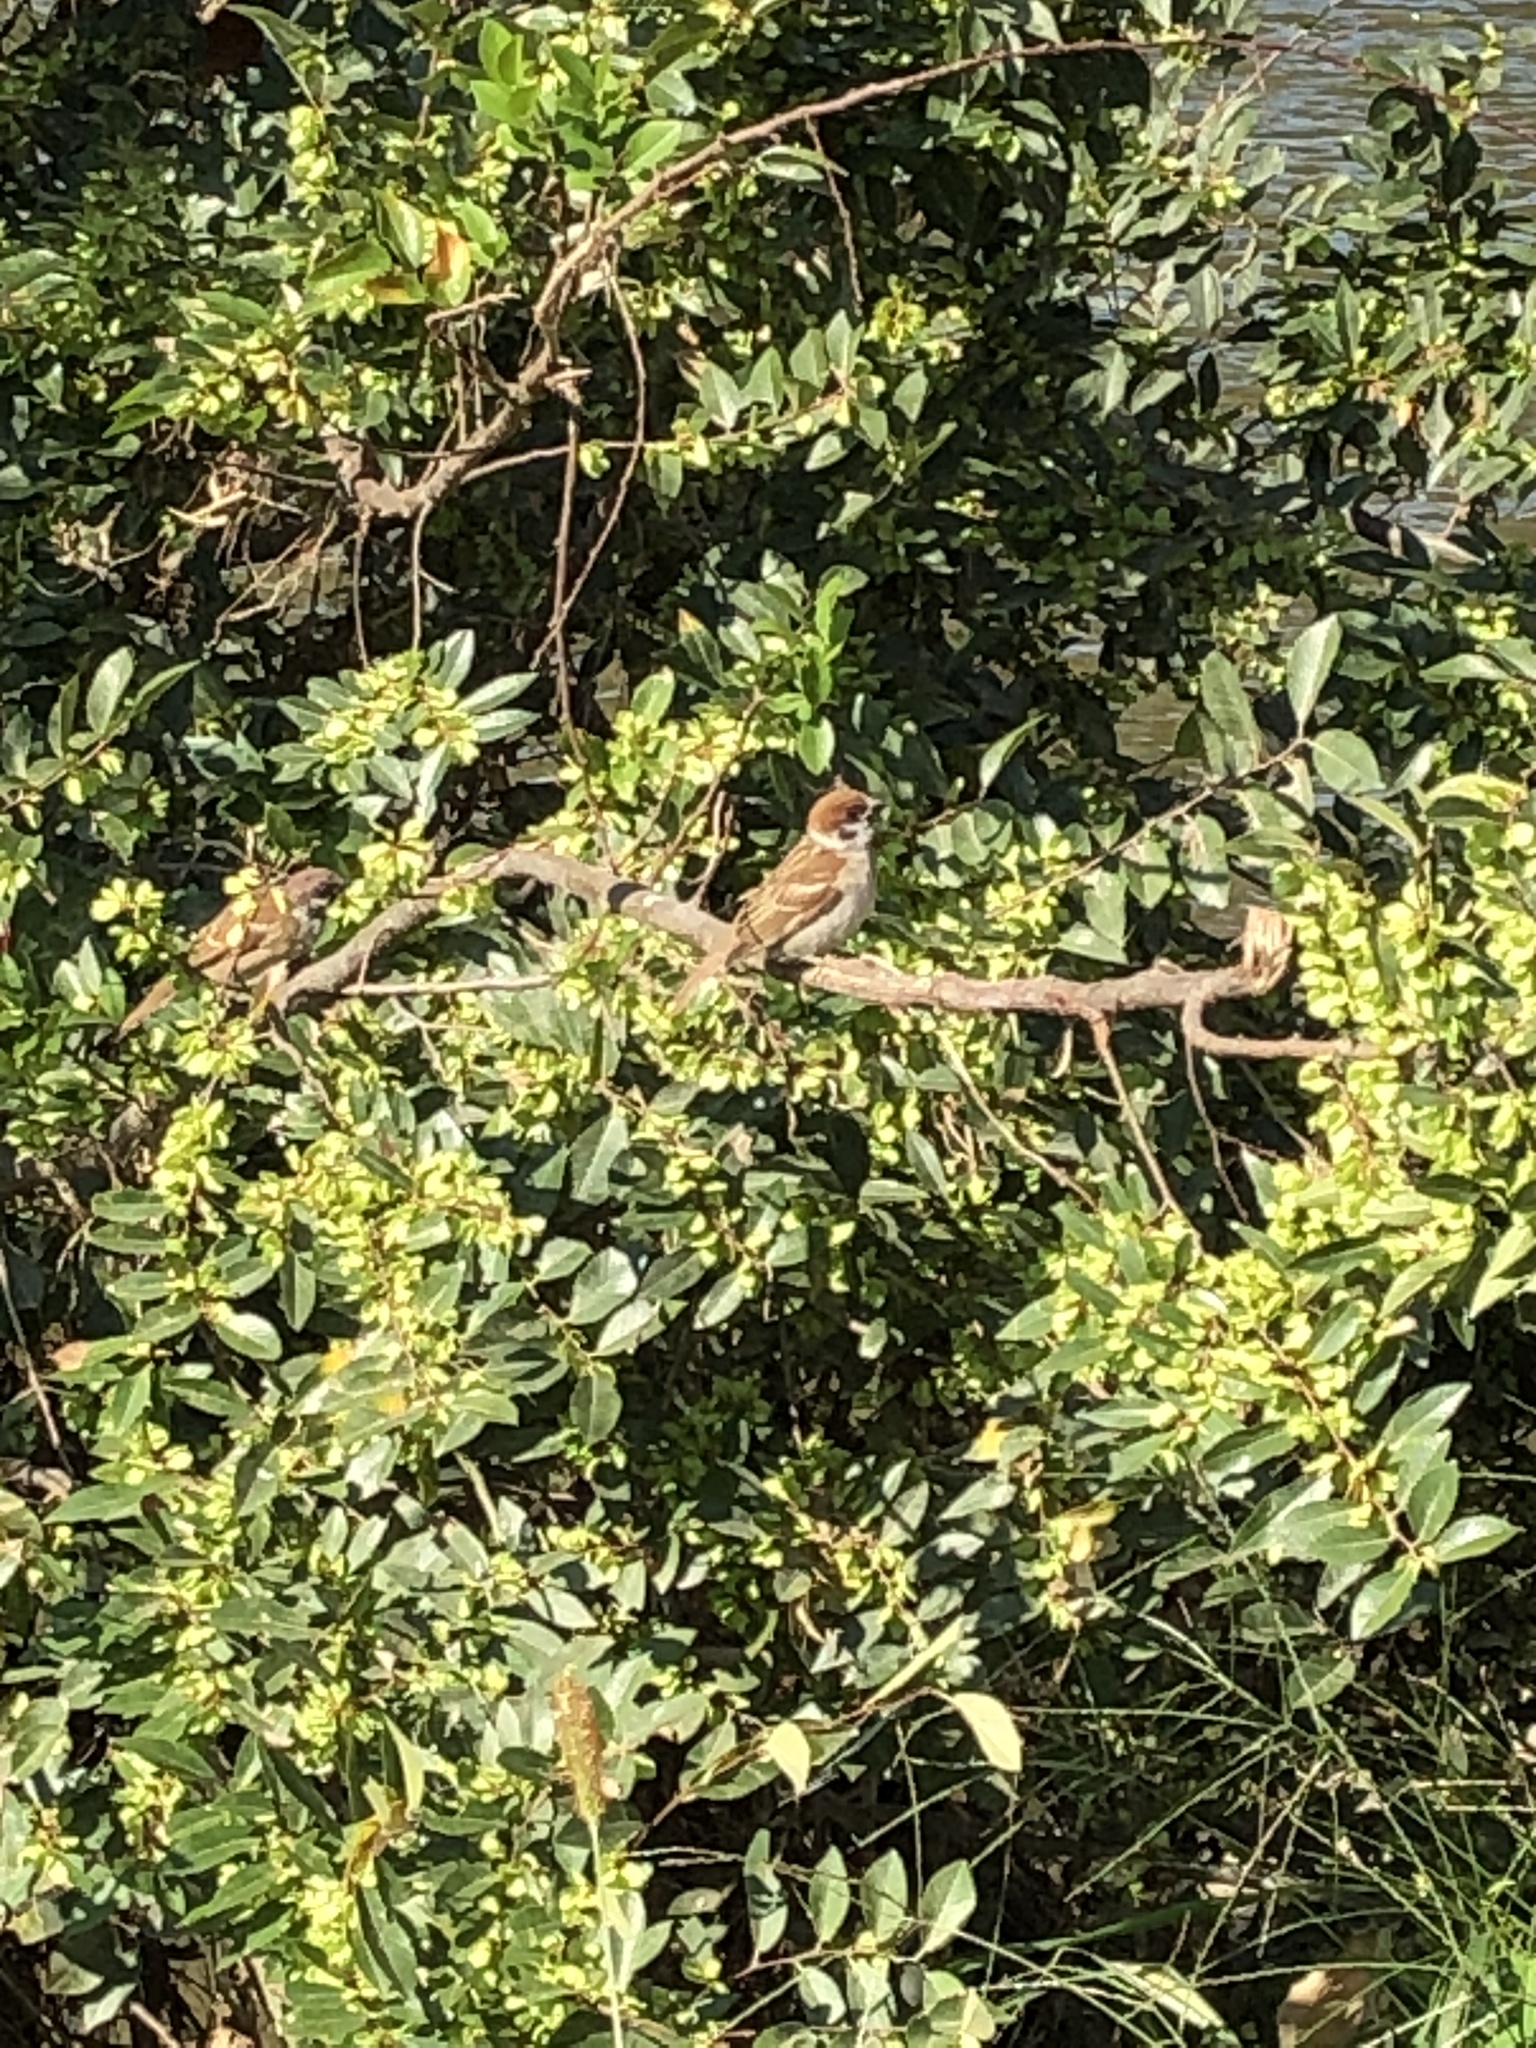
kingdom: Animalia
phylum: Chordata
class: Aves
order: Passeriformes
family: Passeridae
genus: Passer
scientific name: Passer montanus
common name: Eurasian tree sparrow
